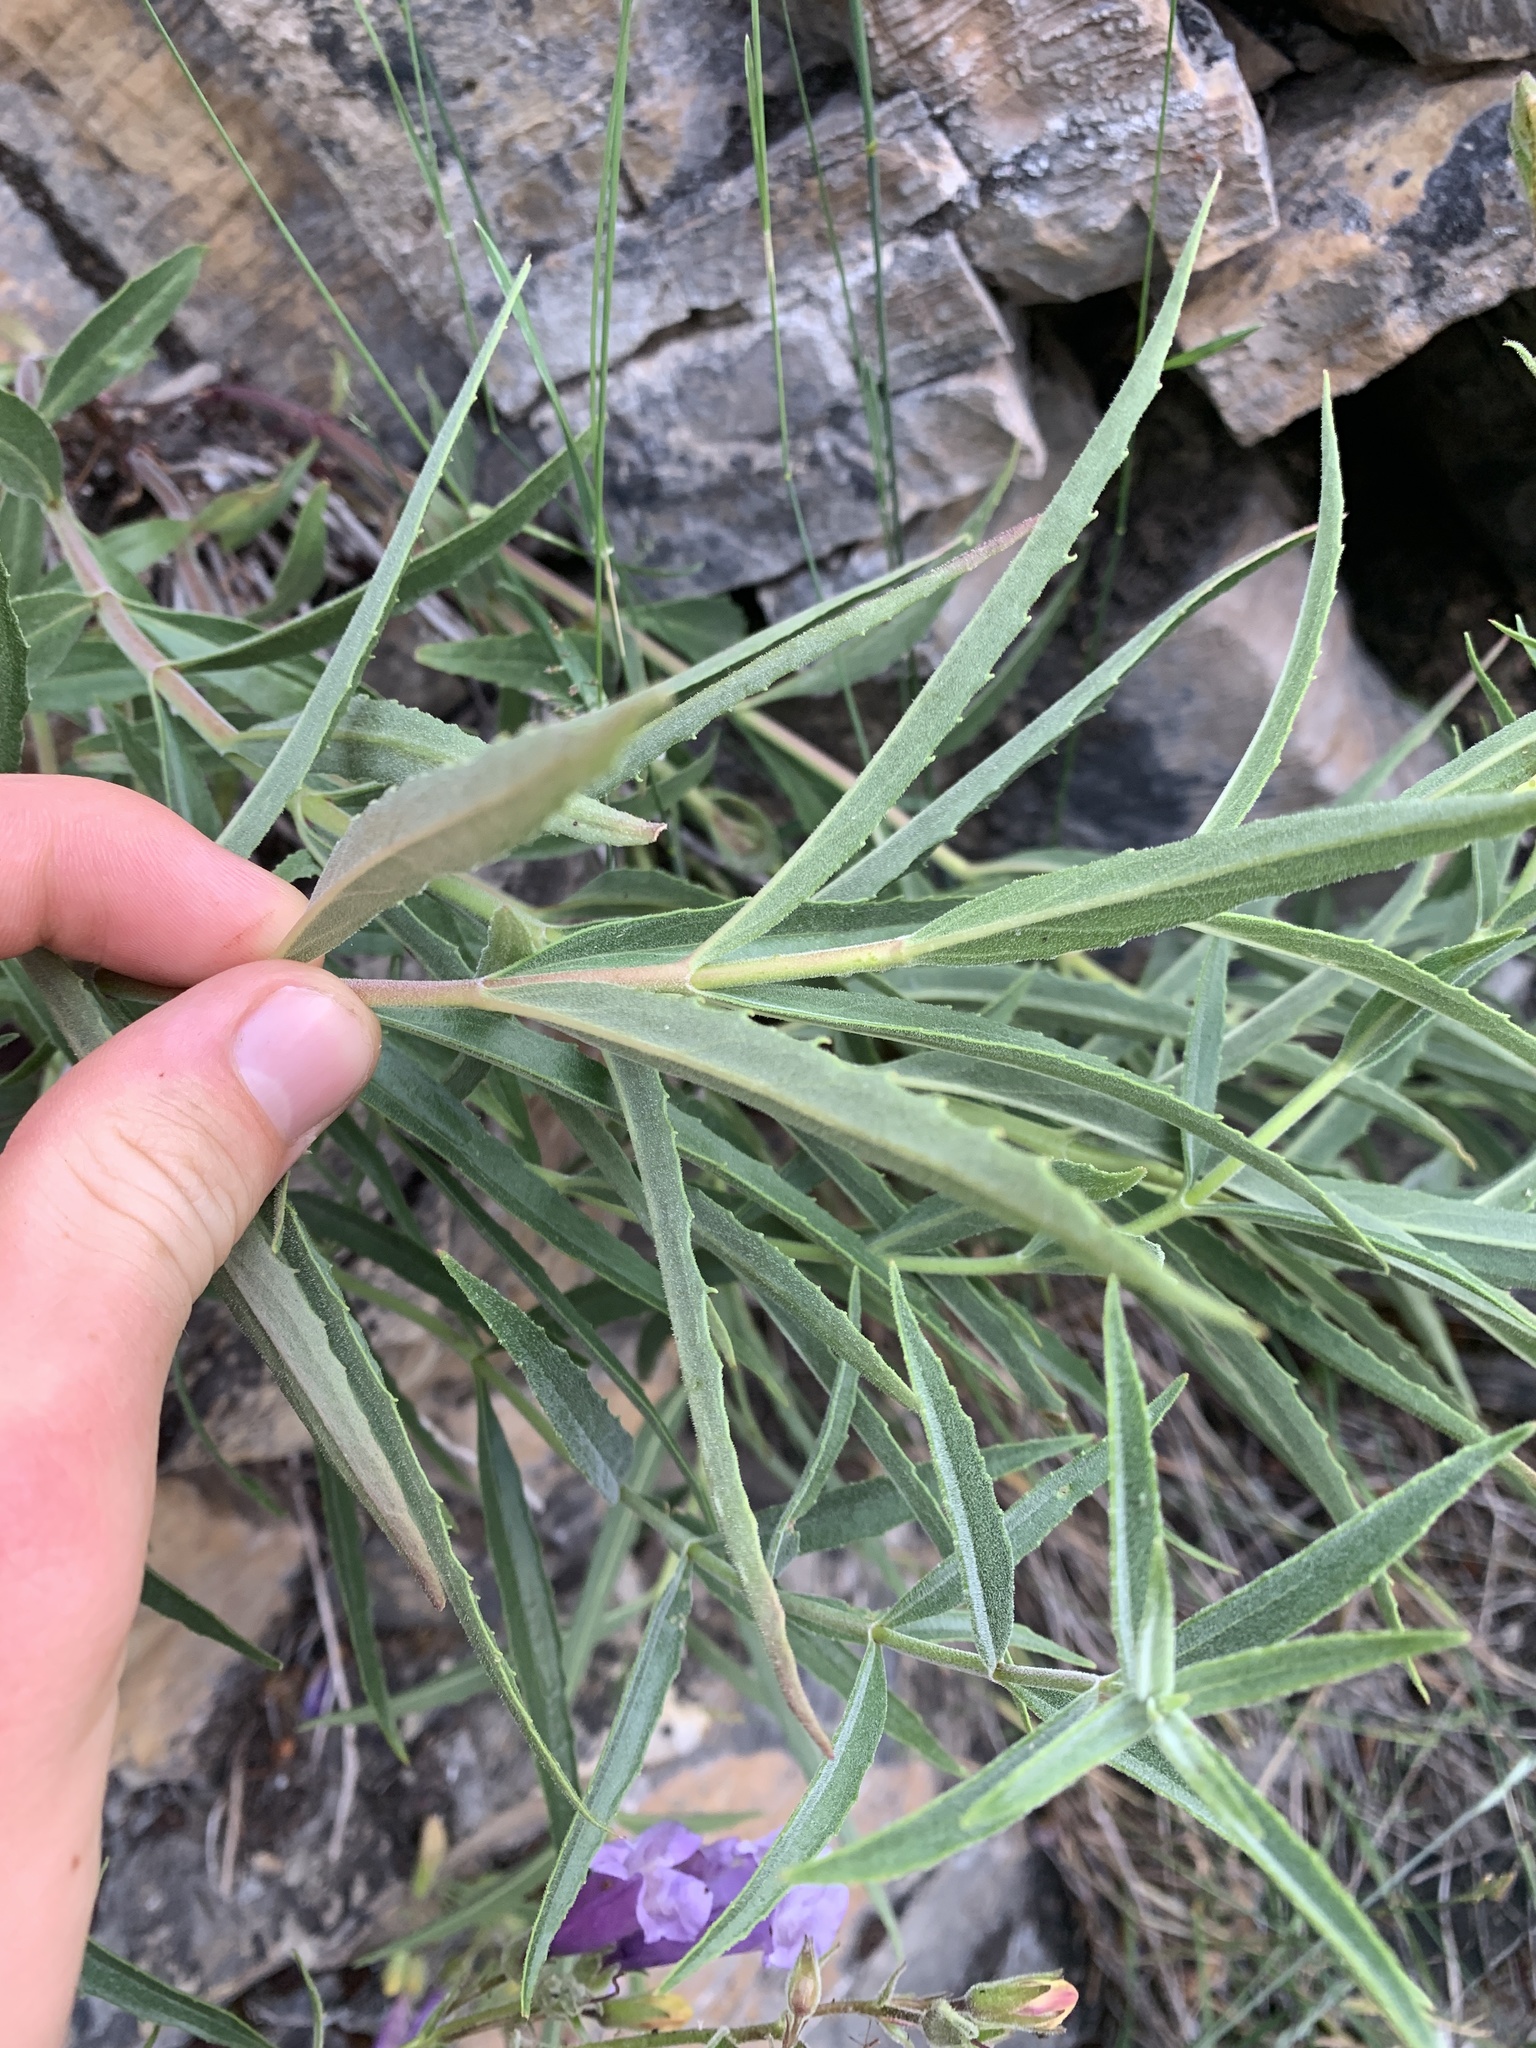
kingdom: Plantae
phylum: Tracheophyta
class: Magnoliopsida
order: Lamiales
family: Plantaginaceae
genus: Penstemon
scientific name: Penstemon lyalli
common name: Lyall's beardtongue
